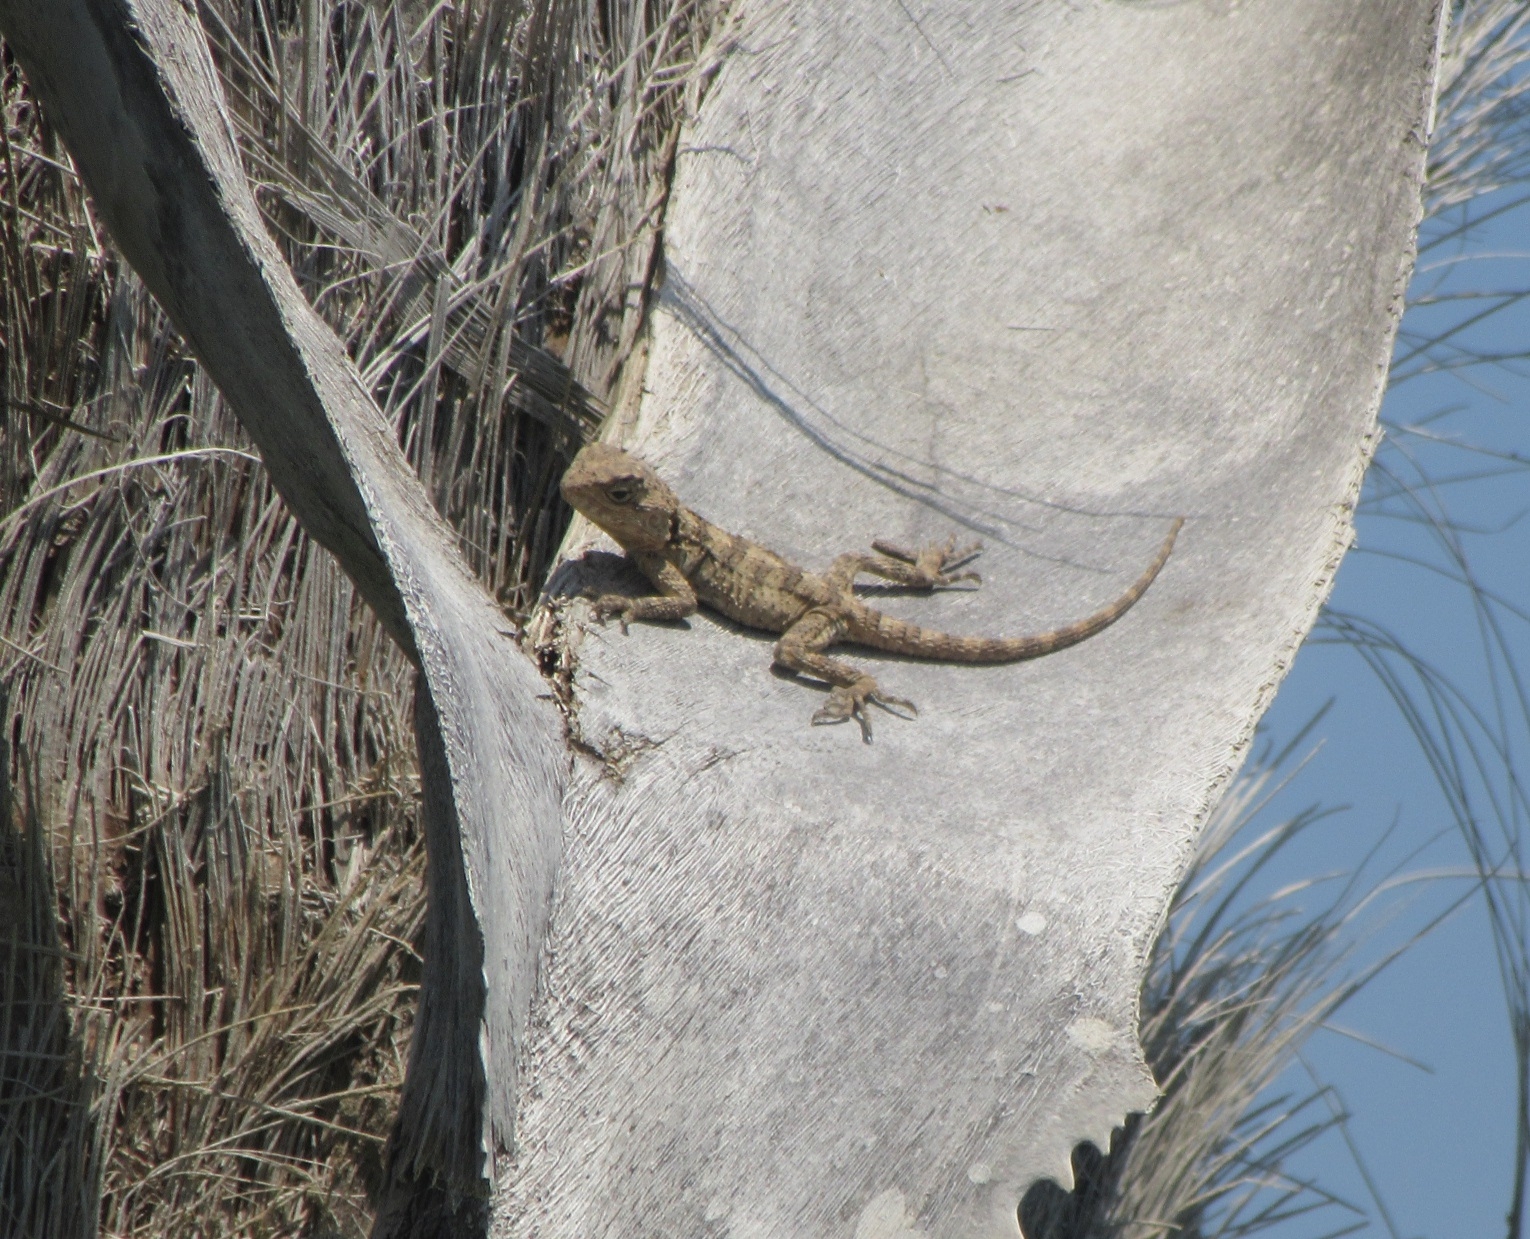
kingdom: Animalia
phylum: Chordata
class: Squamata
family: Agamidae
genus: Laudakia
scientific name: Laudakia
